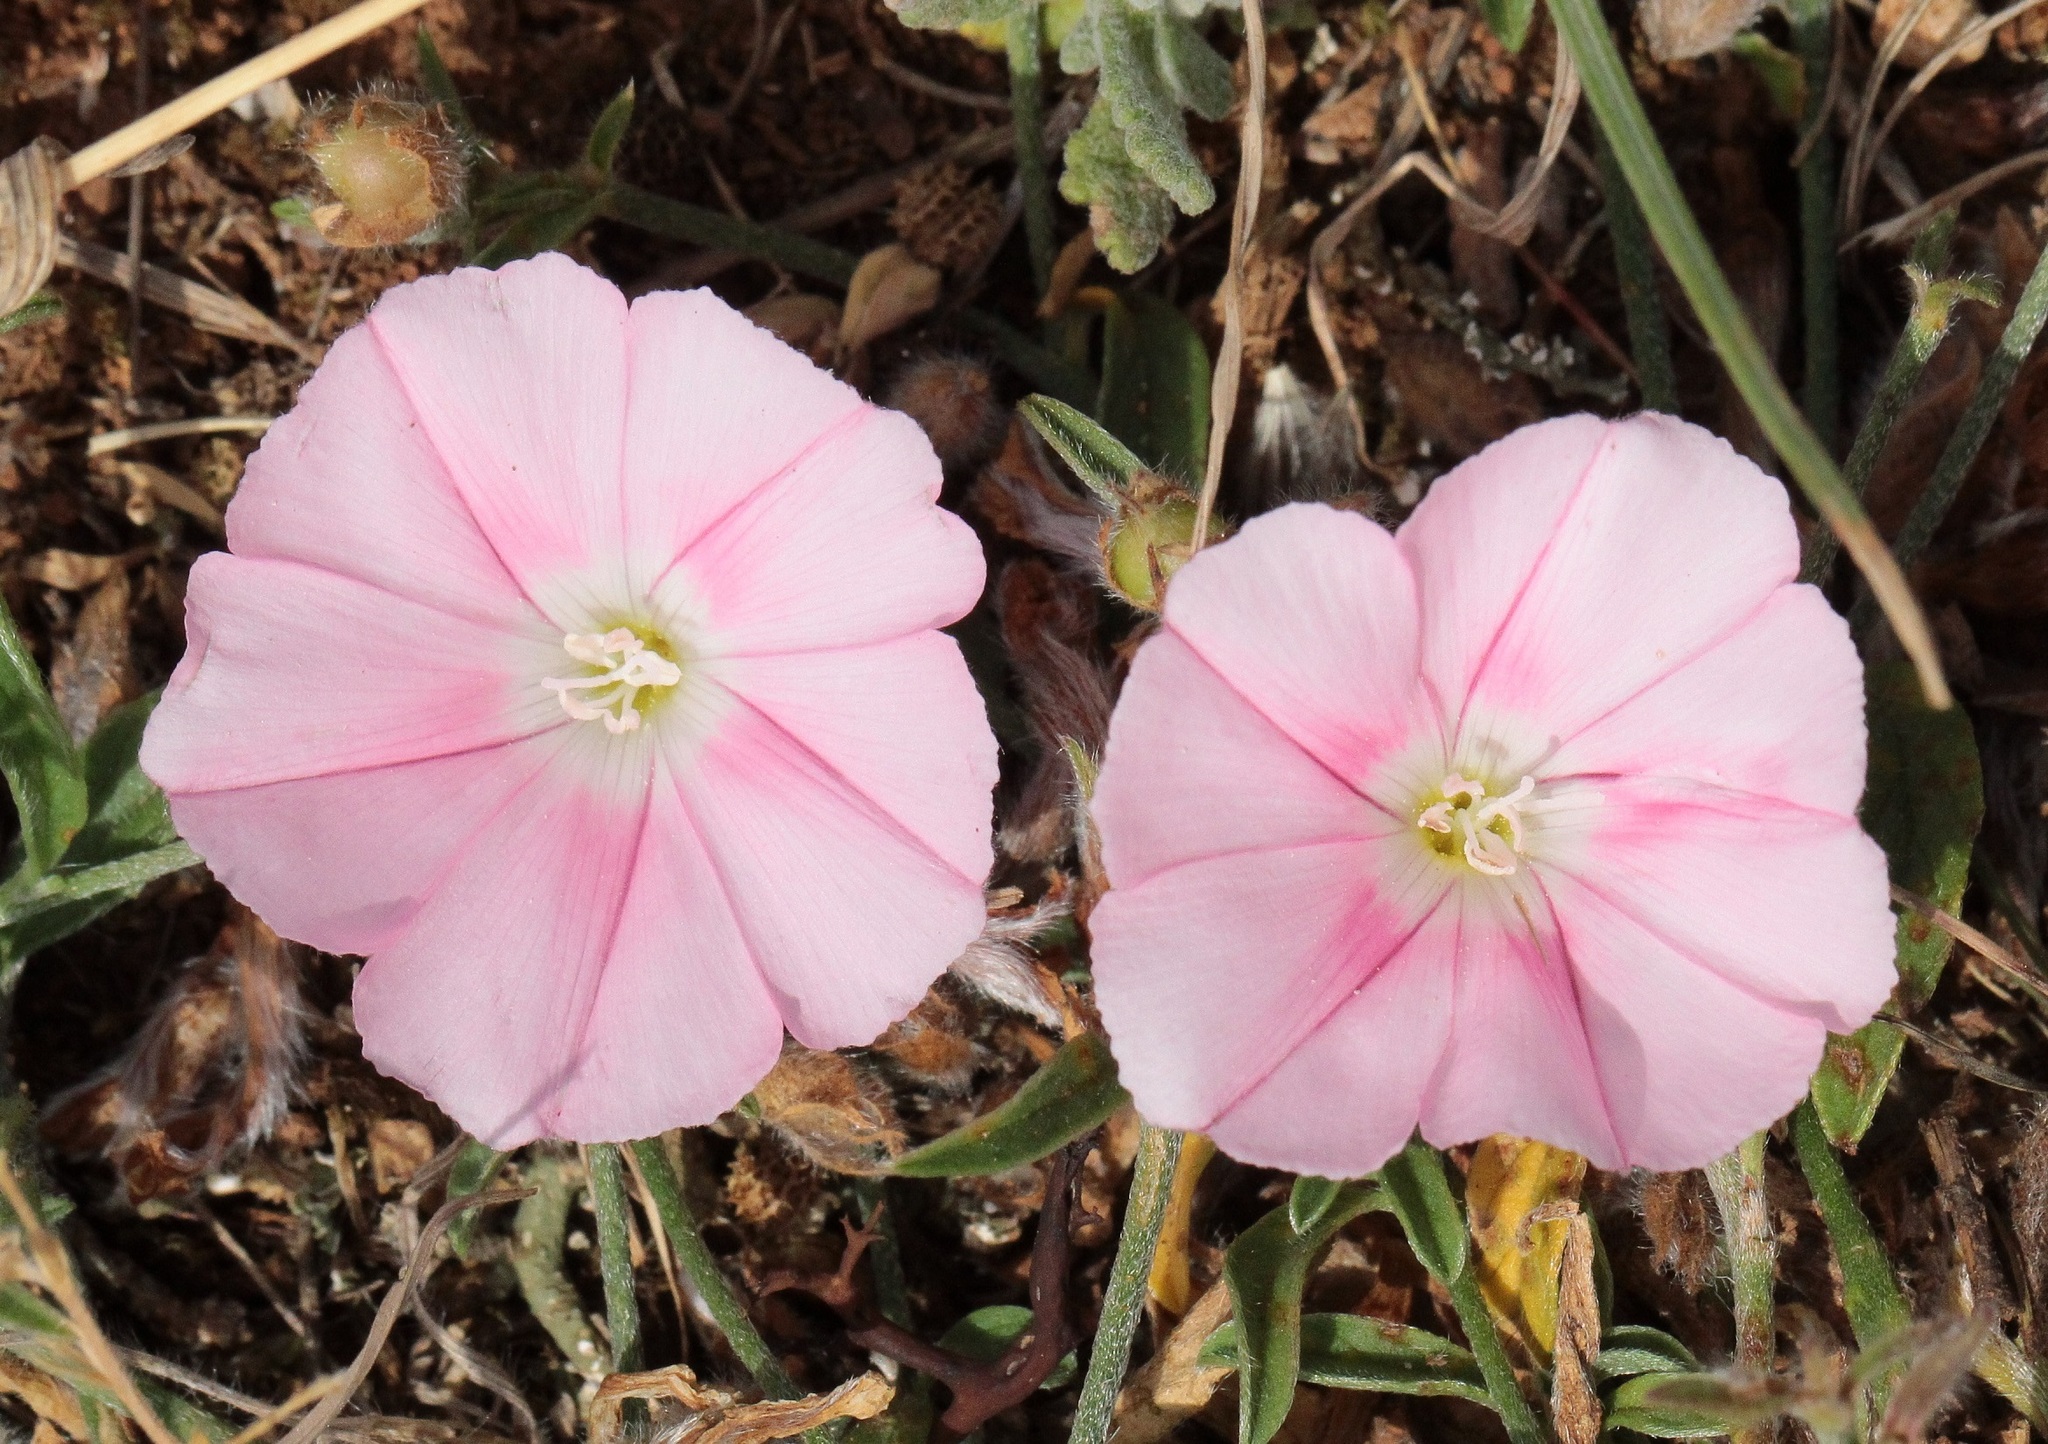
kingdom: Plantae
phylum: Tracheophyta
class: Magnoliopsida
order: Solanales
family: Convolvulaceae
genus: Convolvulus
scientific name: Convolvulus cantabrica
